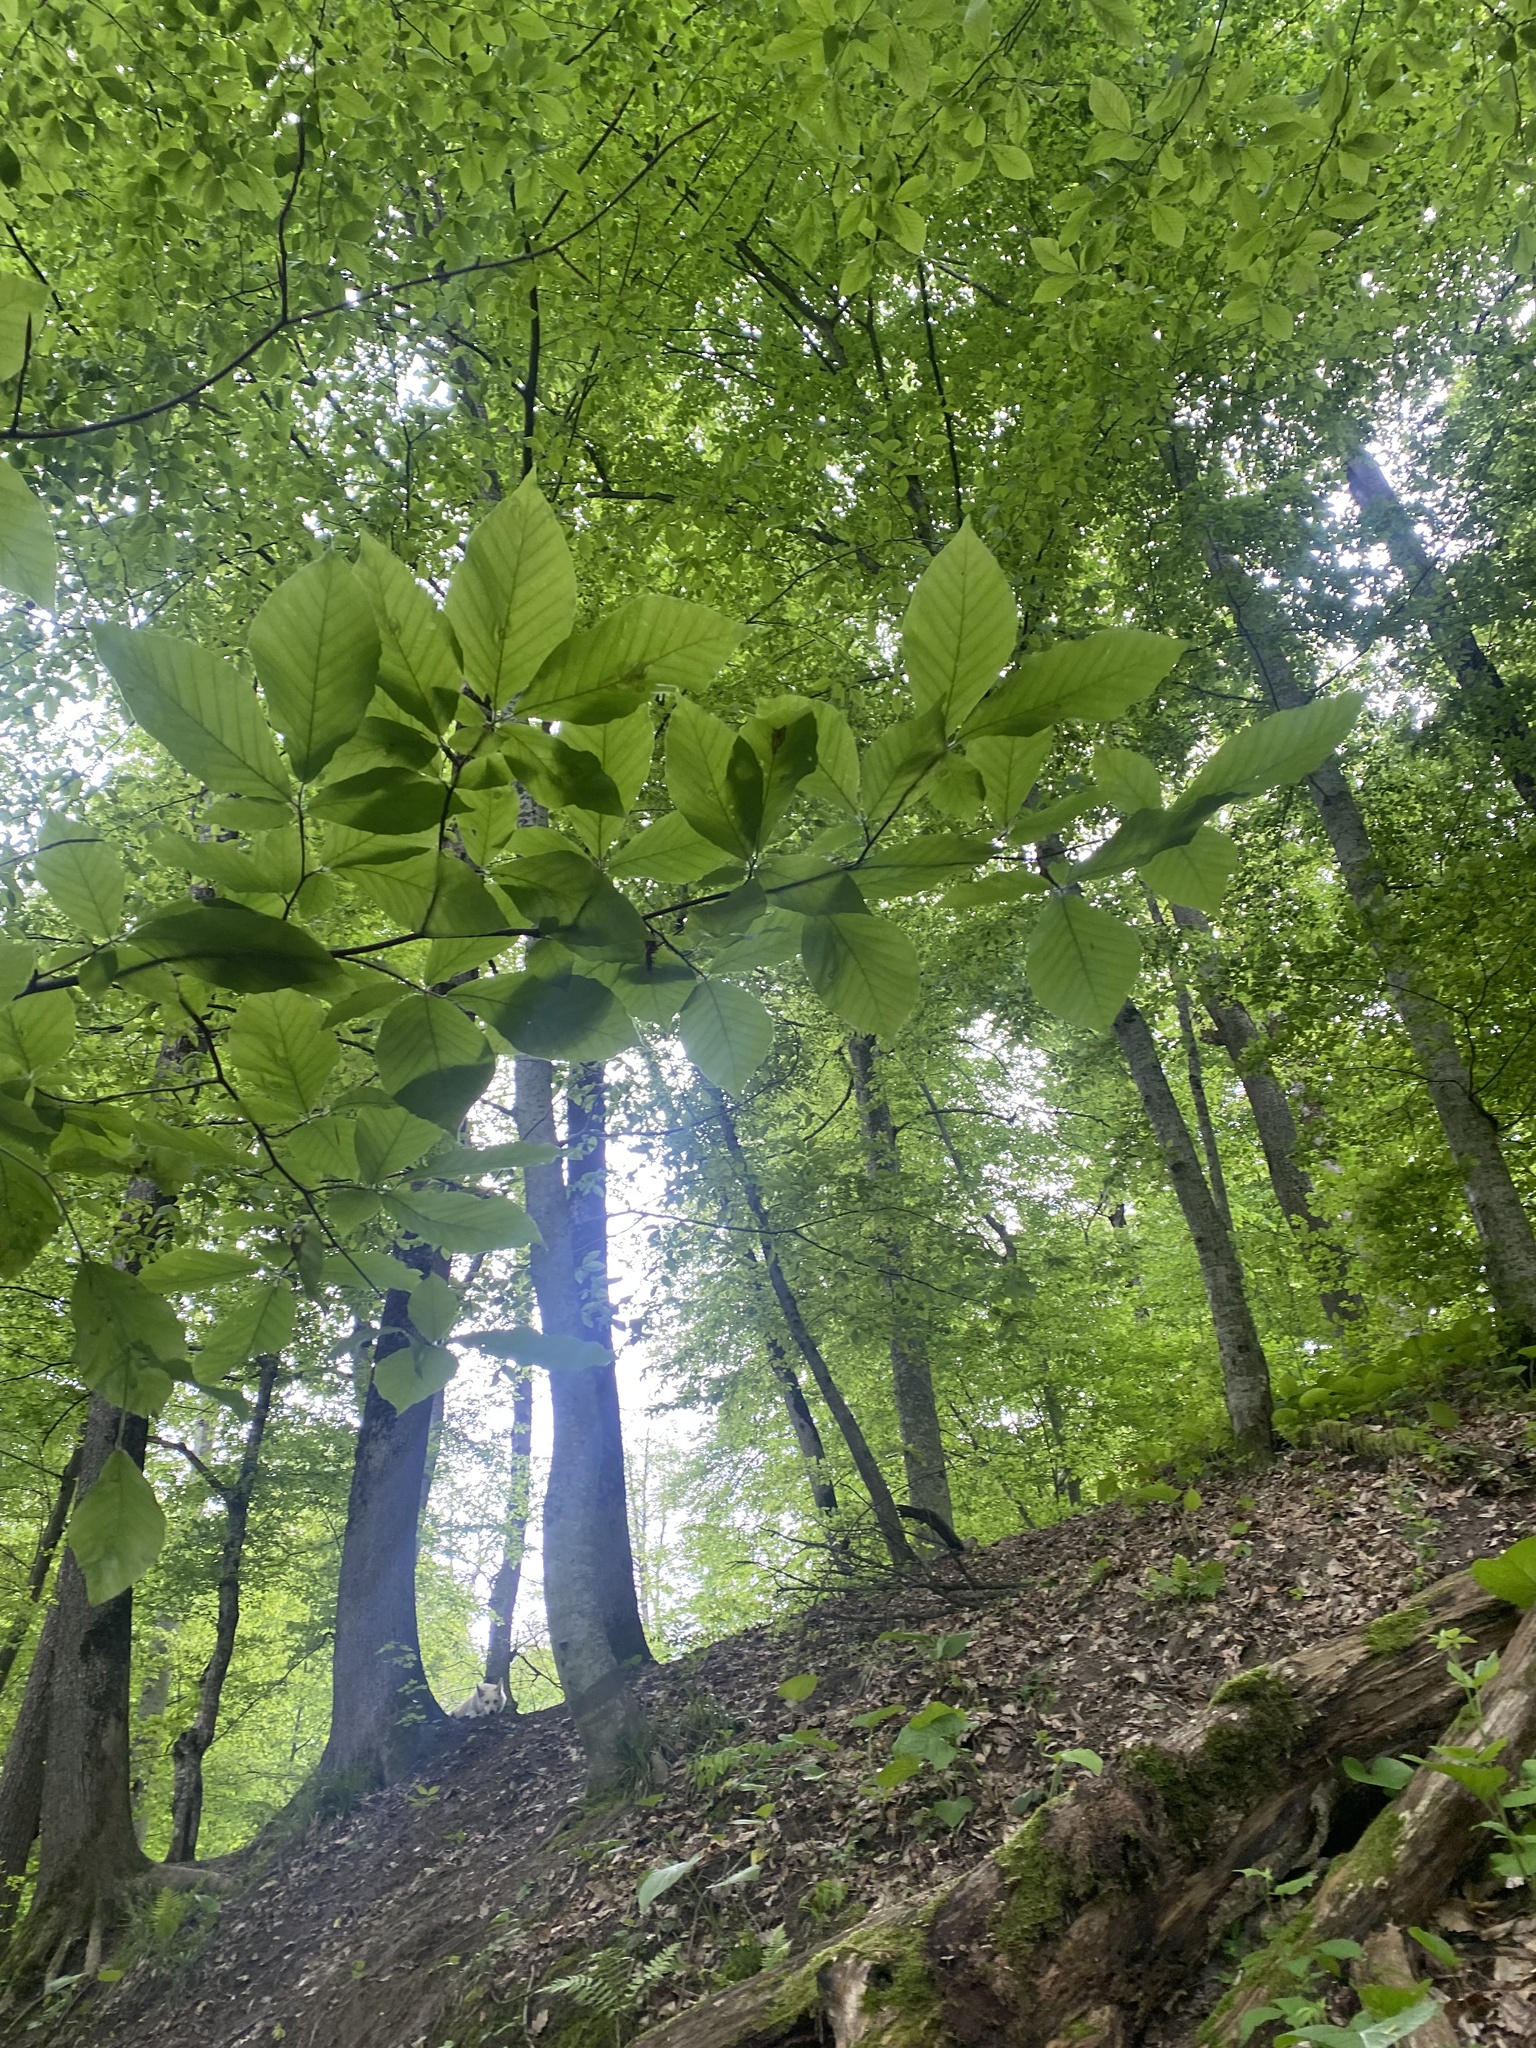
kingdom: Plantae
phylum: Tracheophyta
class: Magnoliopsida
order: Fagales
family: Fagaceae
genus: Fagus
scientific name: Fagus orientalis
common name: Oriental beech
